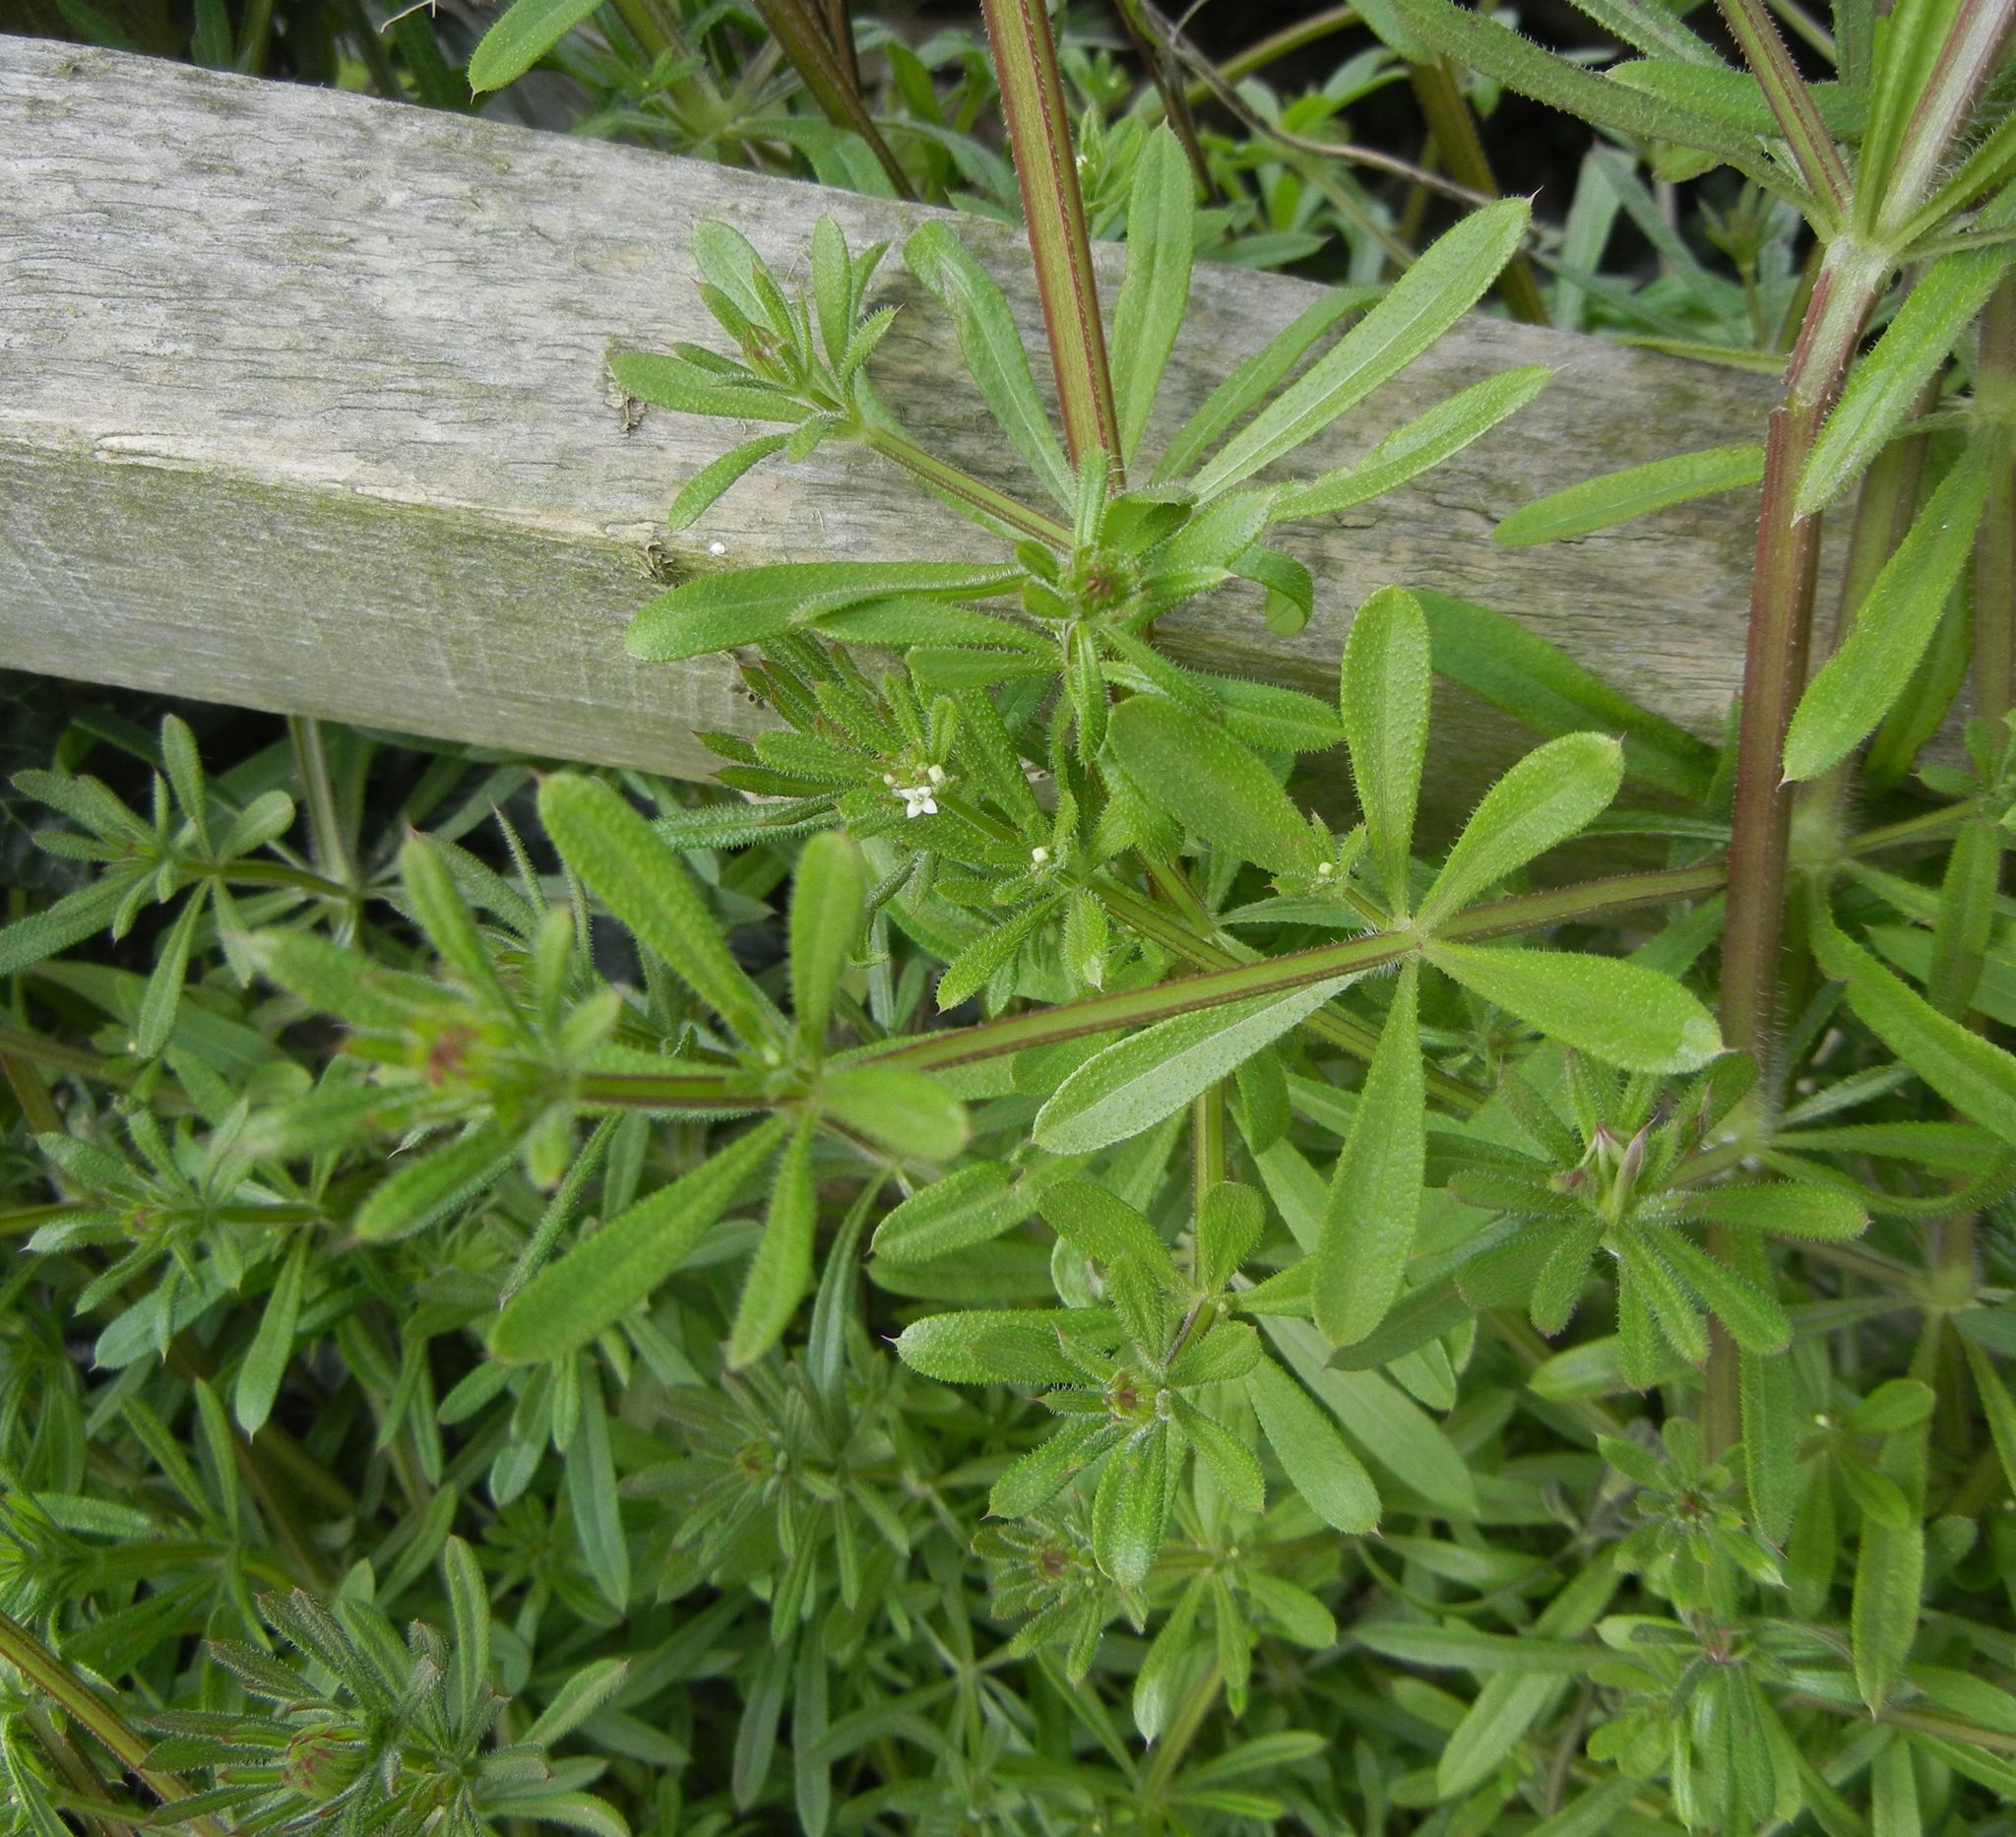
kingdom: Plantae
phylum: Tracheophyta
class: Magnoliopsida
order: Gentianales
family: Rubiaceae
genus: Galium
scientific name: Galium aparine
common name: Cleavers
